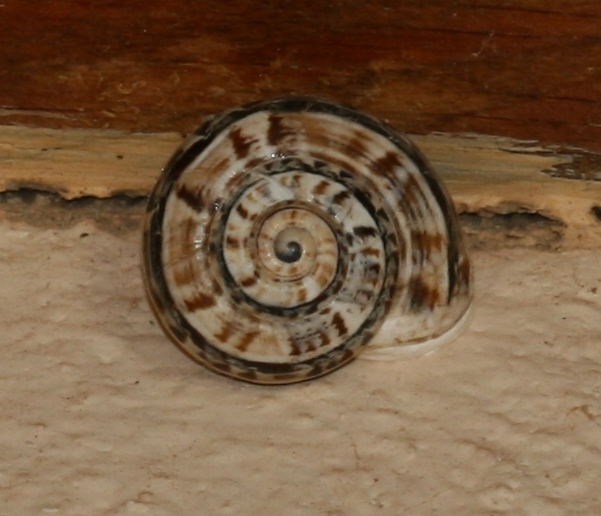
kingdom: Animalia
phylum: Mollusca
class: Gastropoda
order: Stylommatophora
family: Helicidae
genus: Theba
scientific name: Theba geminata
